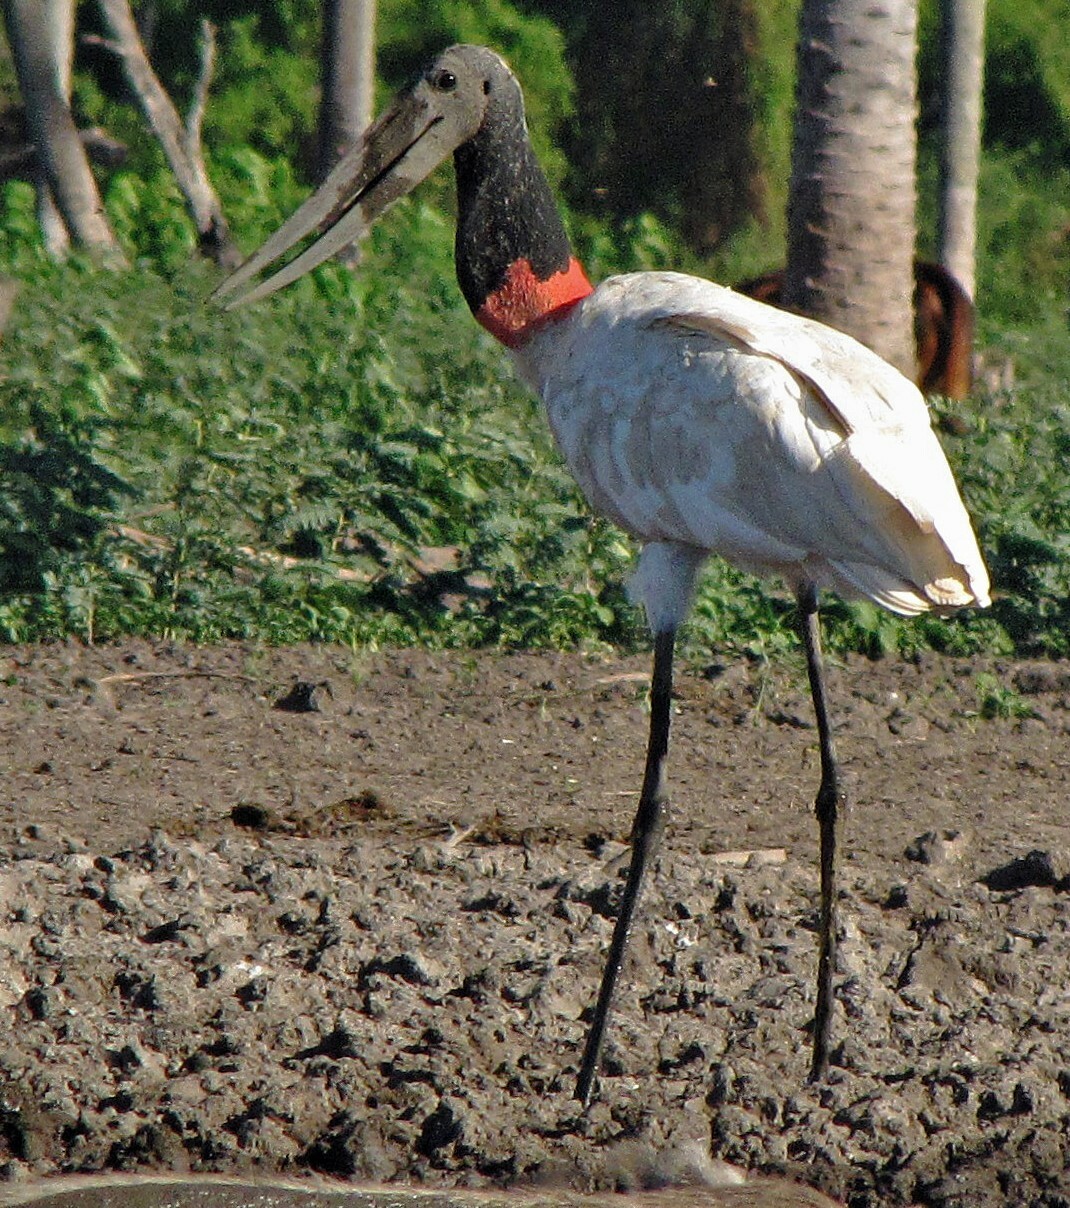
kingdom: Animalia
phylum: Chordata
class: Aves
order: Ciconiiformes
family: Ciconiidae
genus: Jabiru
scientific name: Jabiru mycteria
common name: Jabiru
